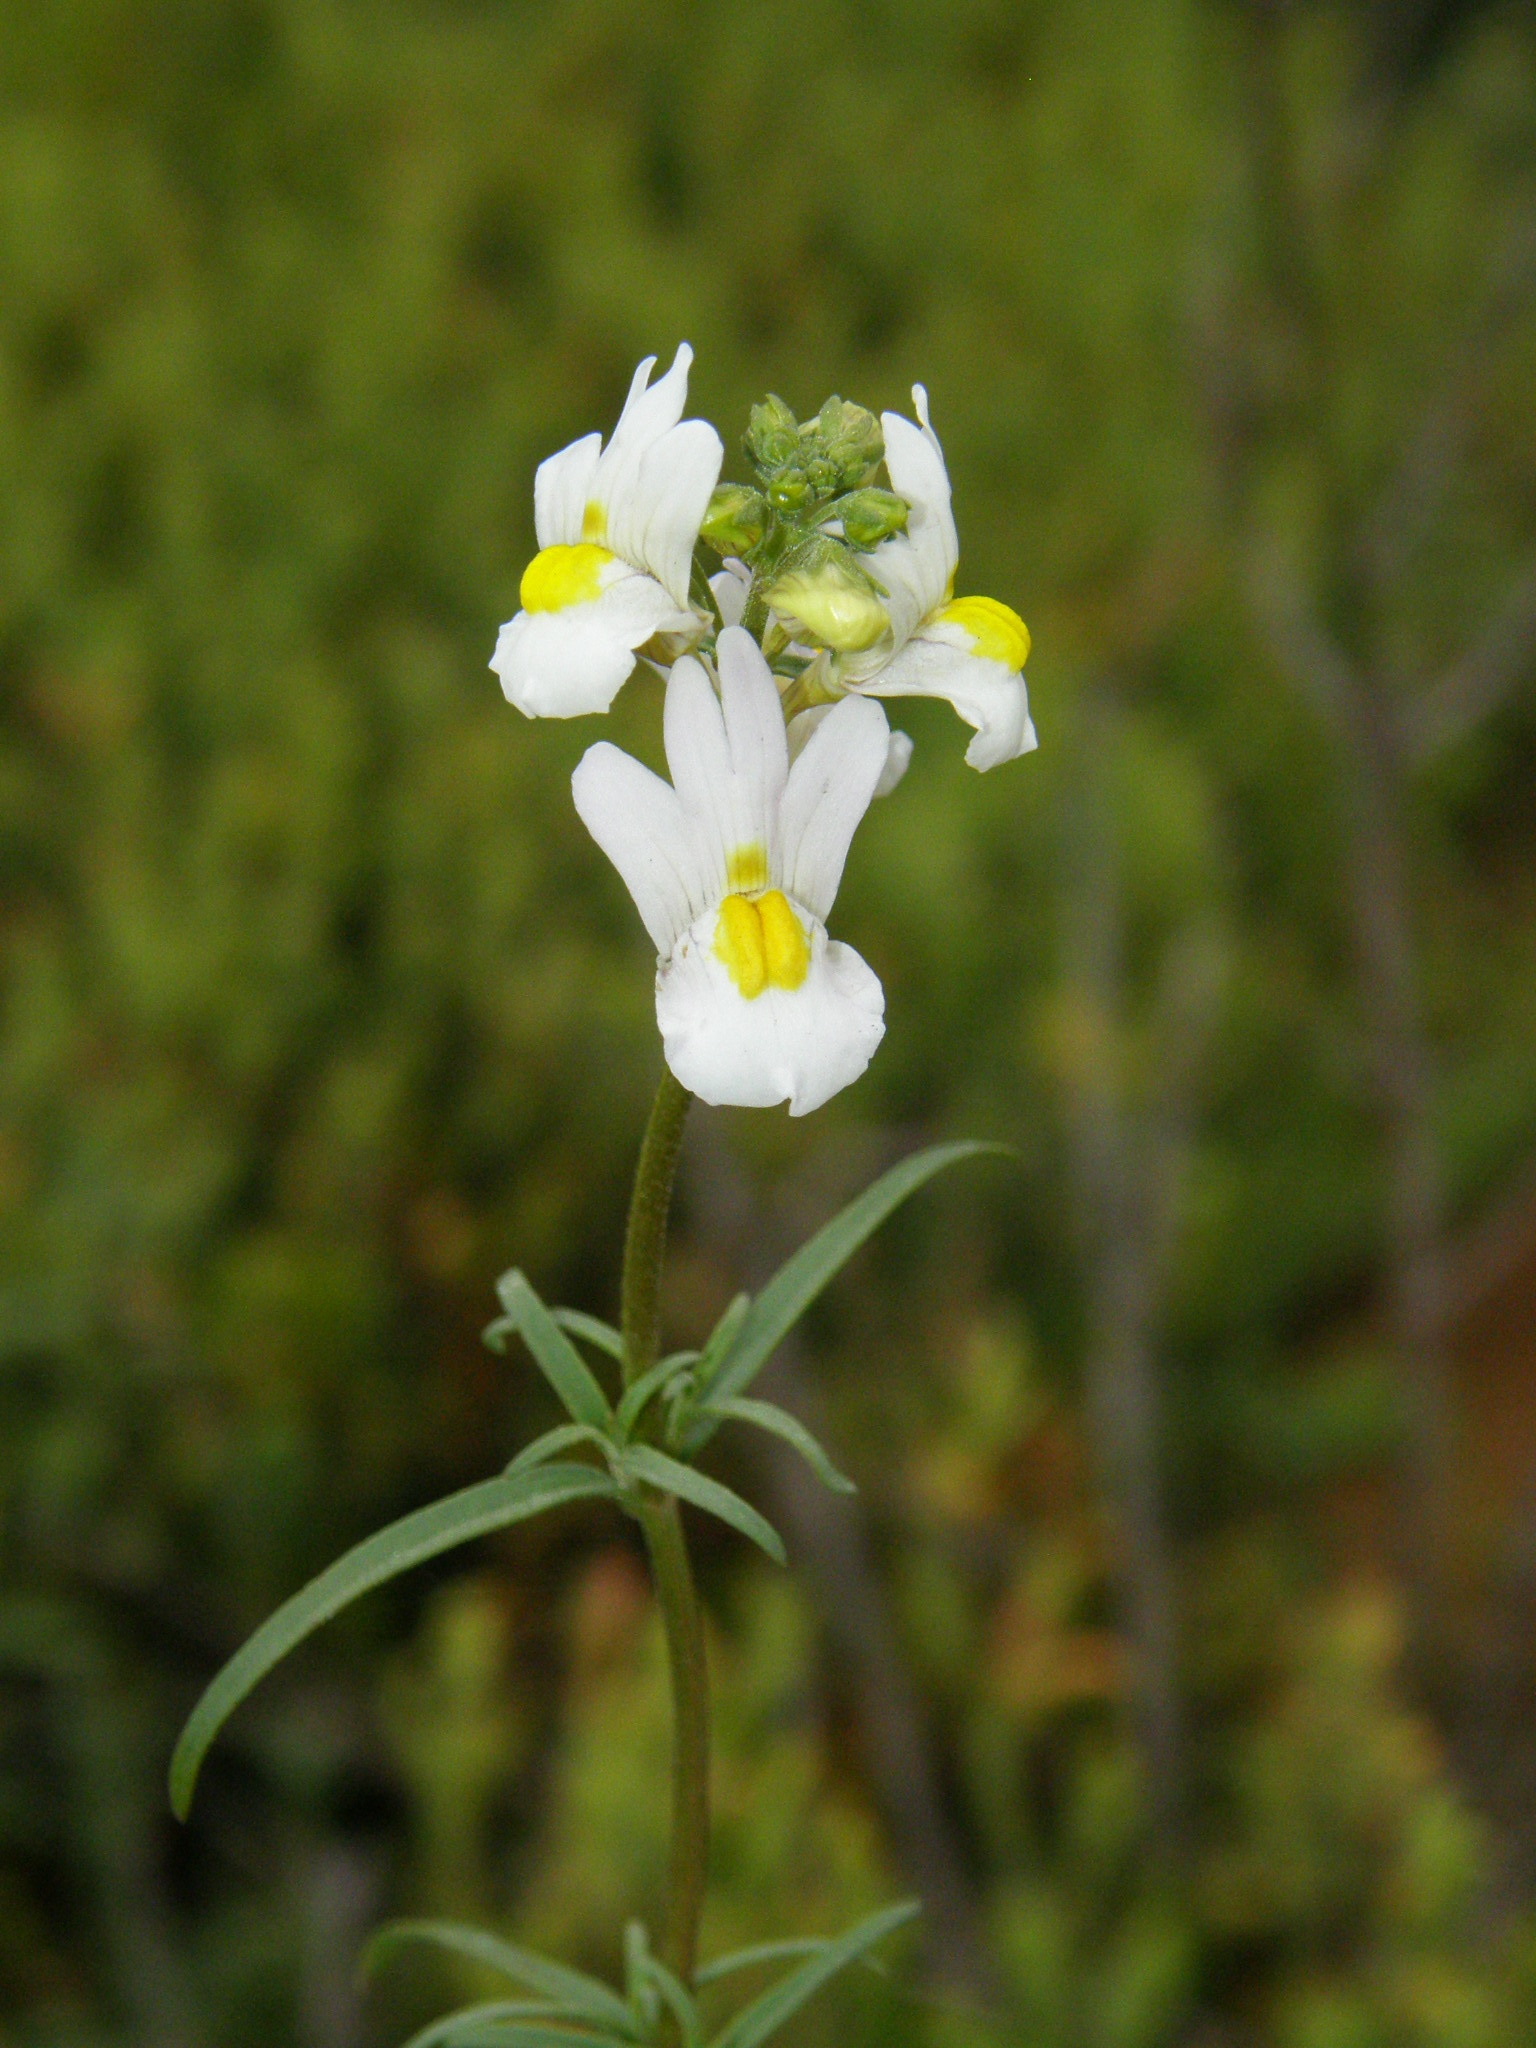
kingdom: Plantae
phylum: Tracheophyta
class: Magnoliopsida
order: Lamiales
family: Scrophulariaceae
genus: Nemesia
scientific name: Nemesia fruticans
